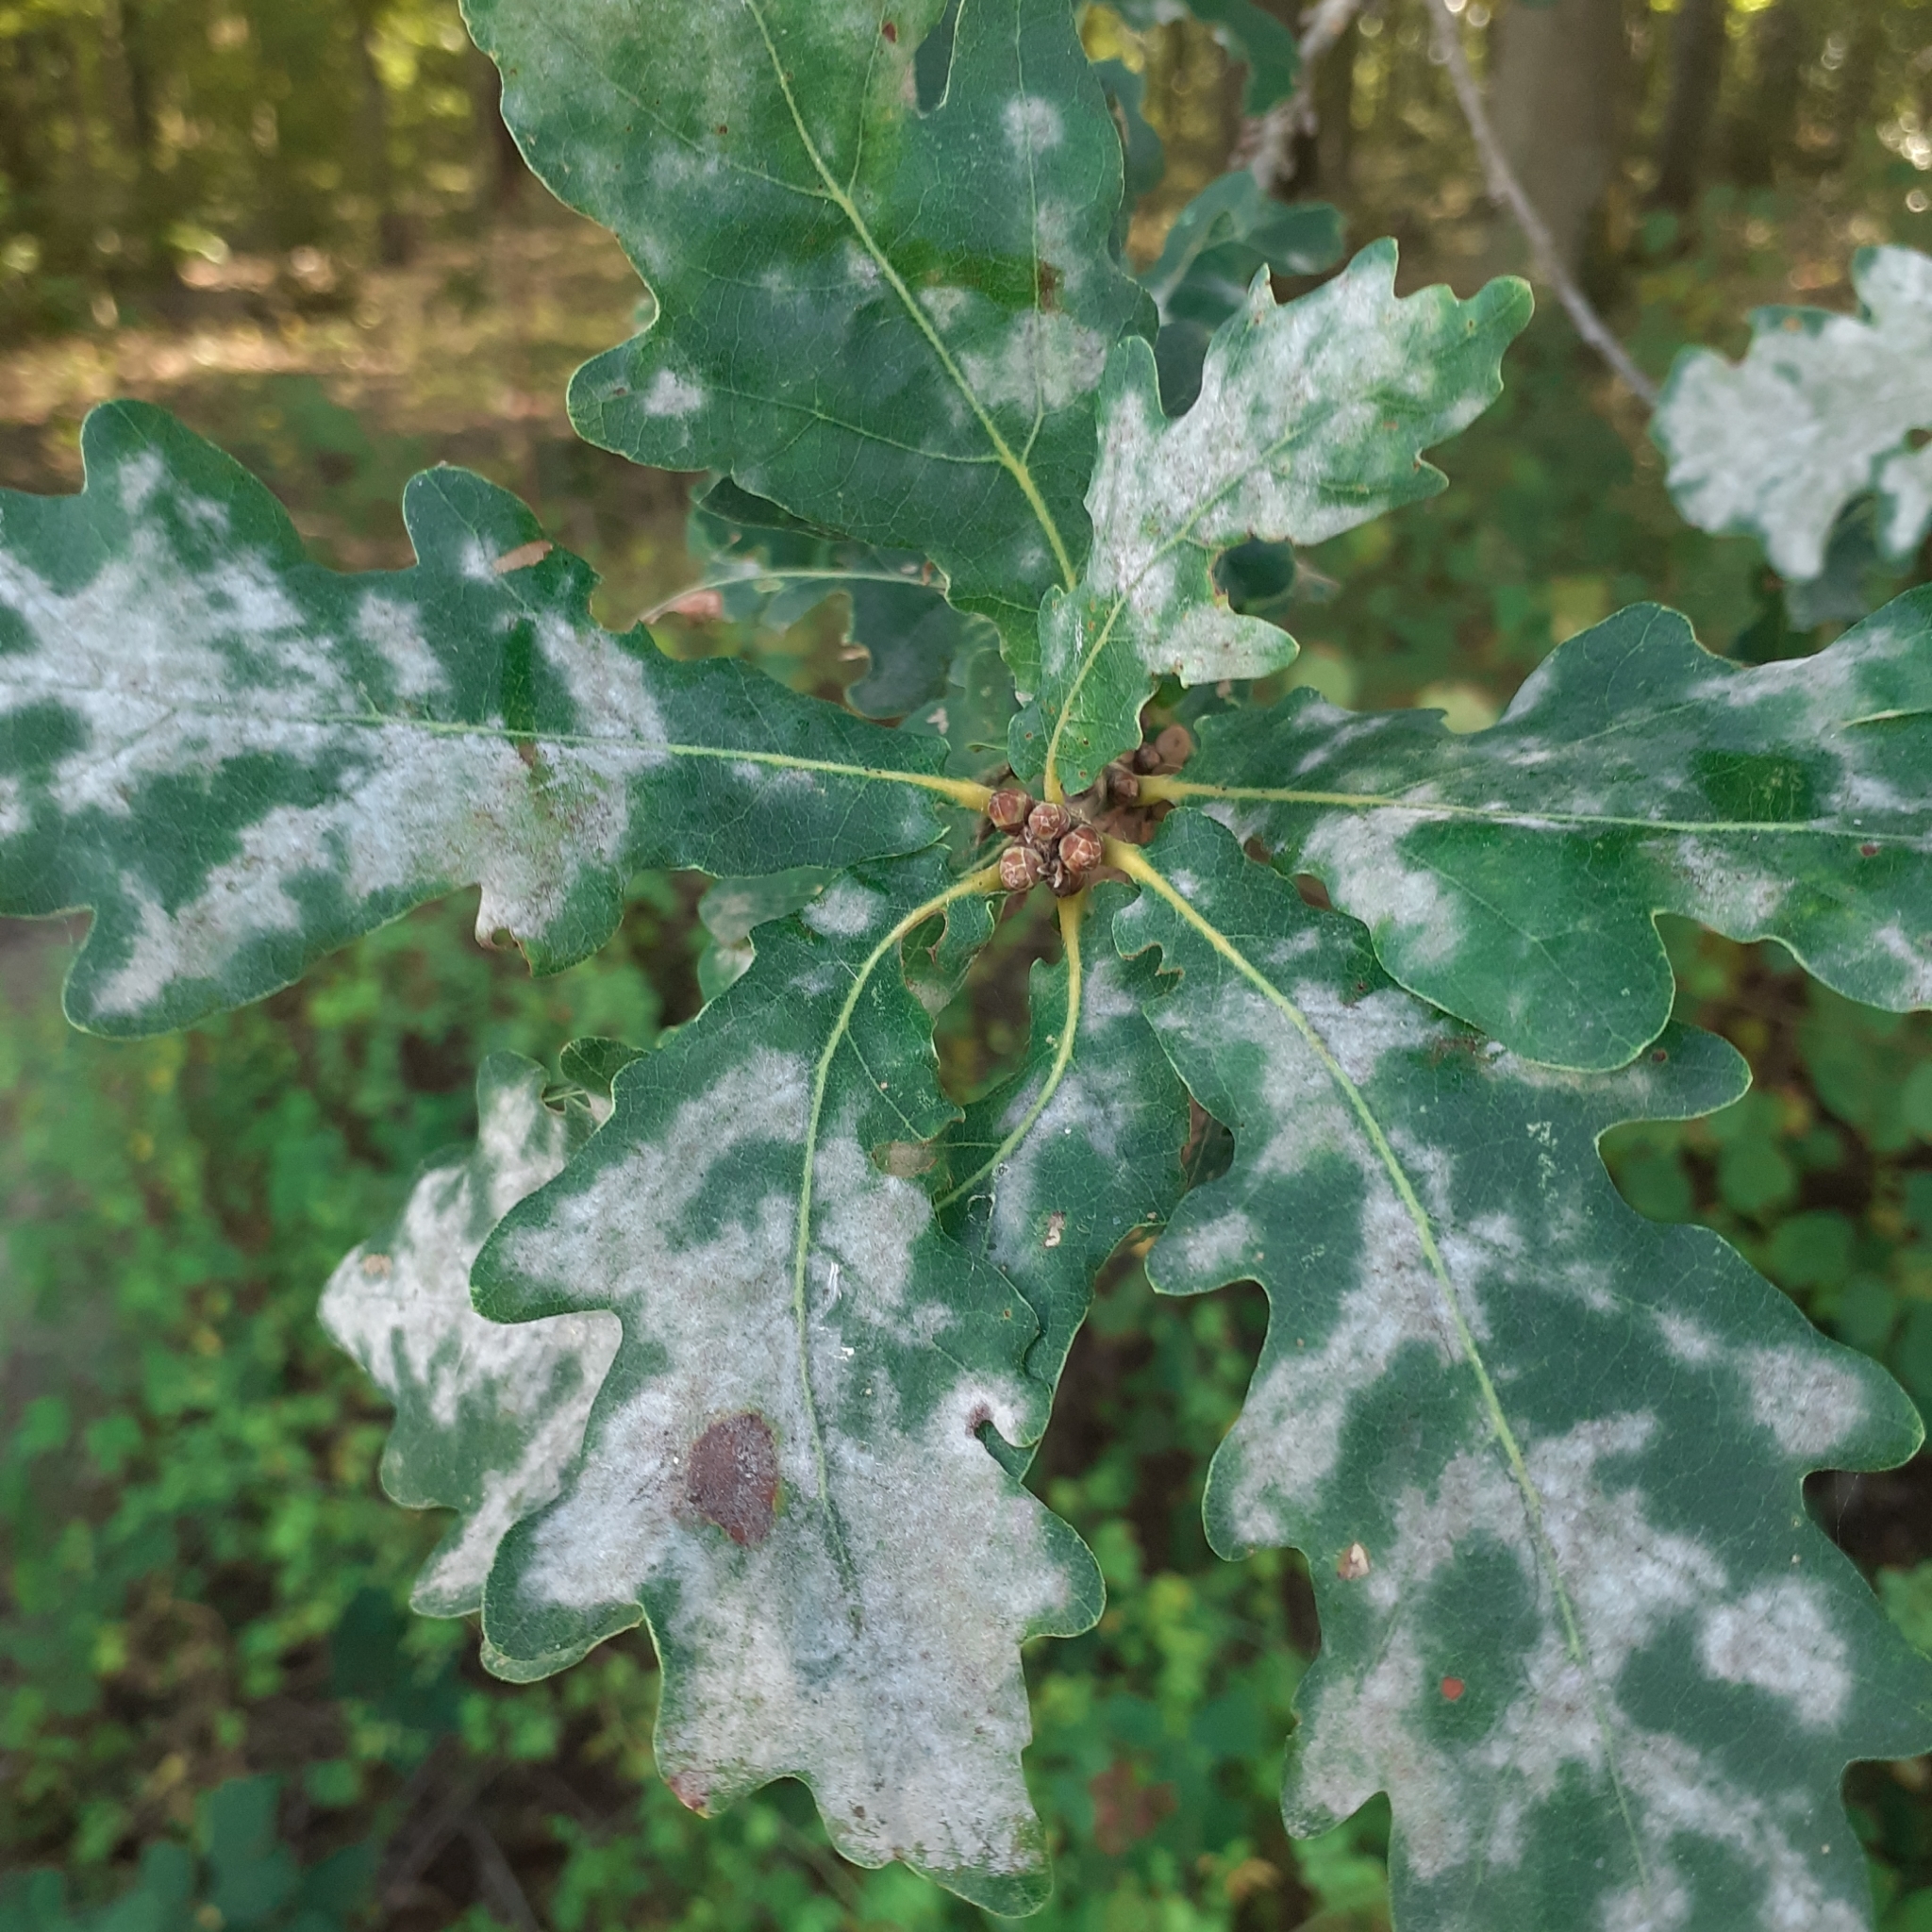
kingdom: Fungi
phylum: Ascomycota
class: Leotiomycetes
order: Helotiales
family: Erysiphaceae
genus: Erysiphe
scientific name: Erysiphe
